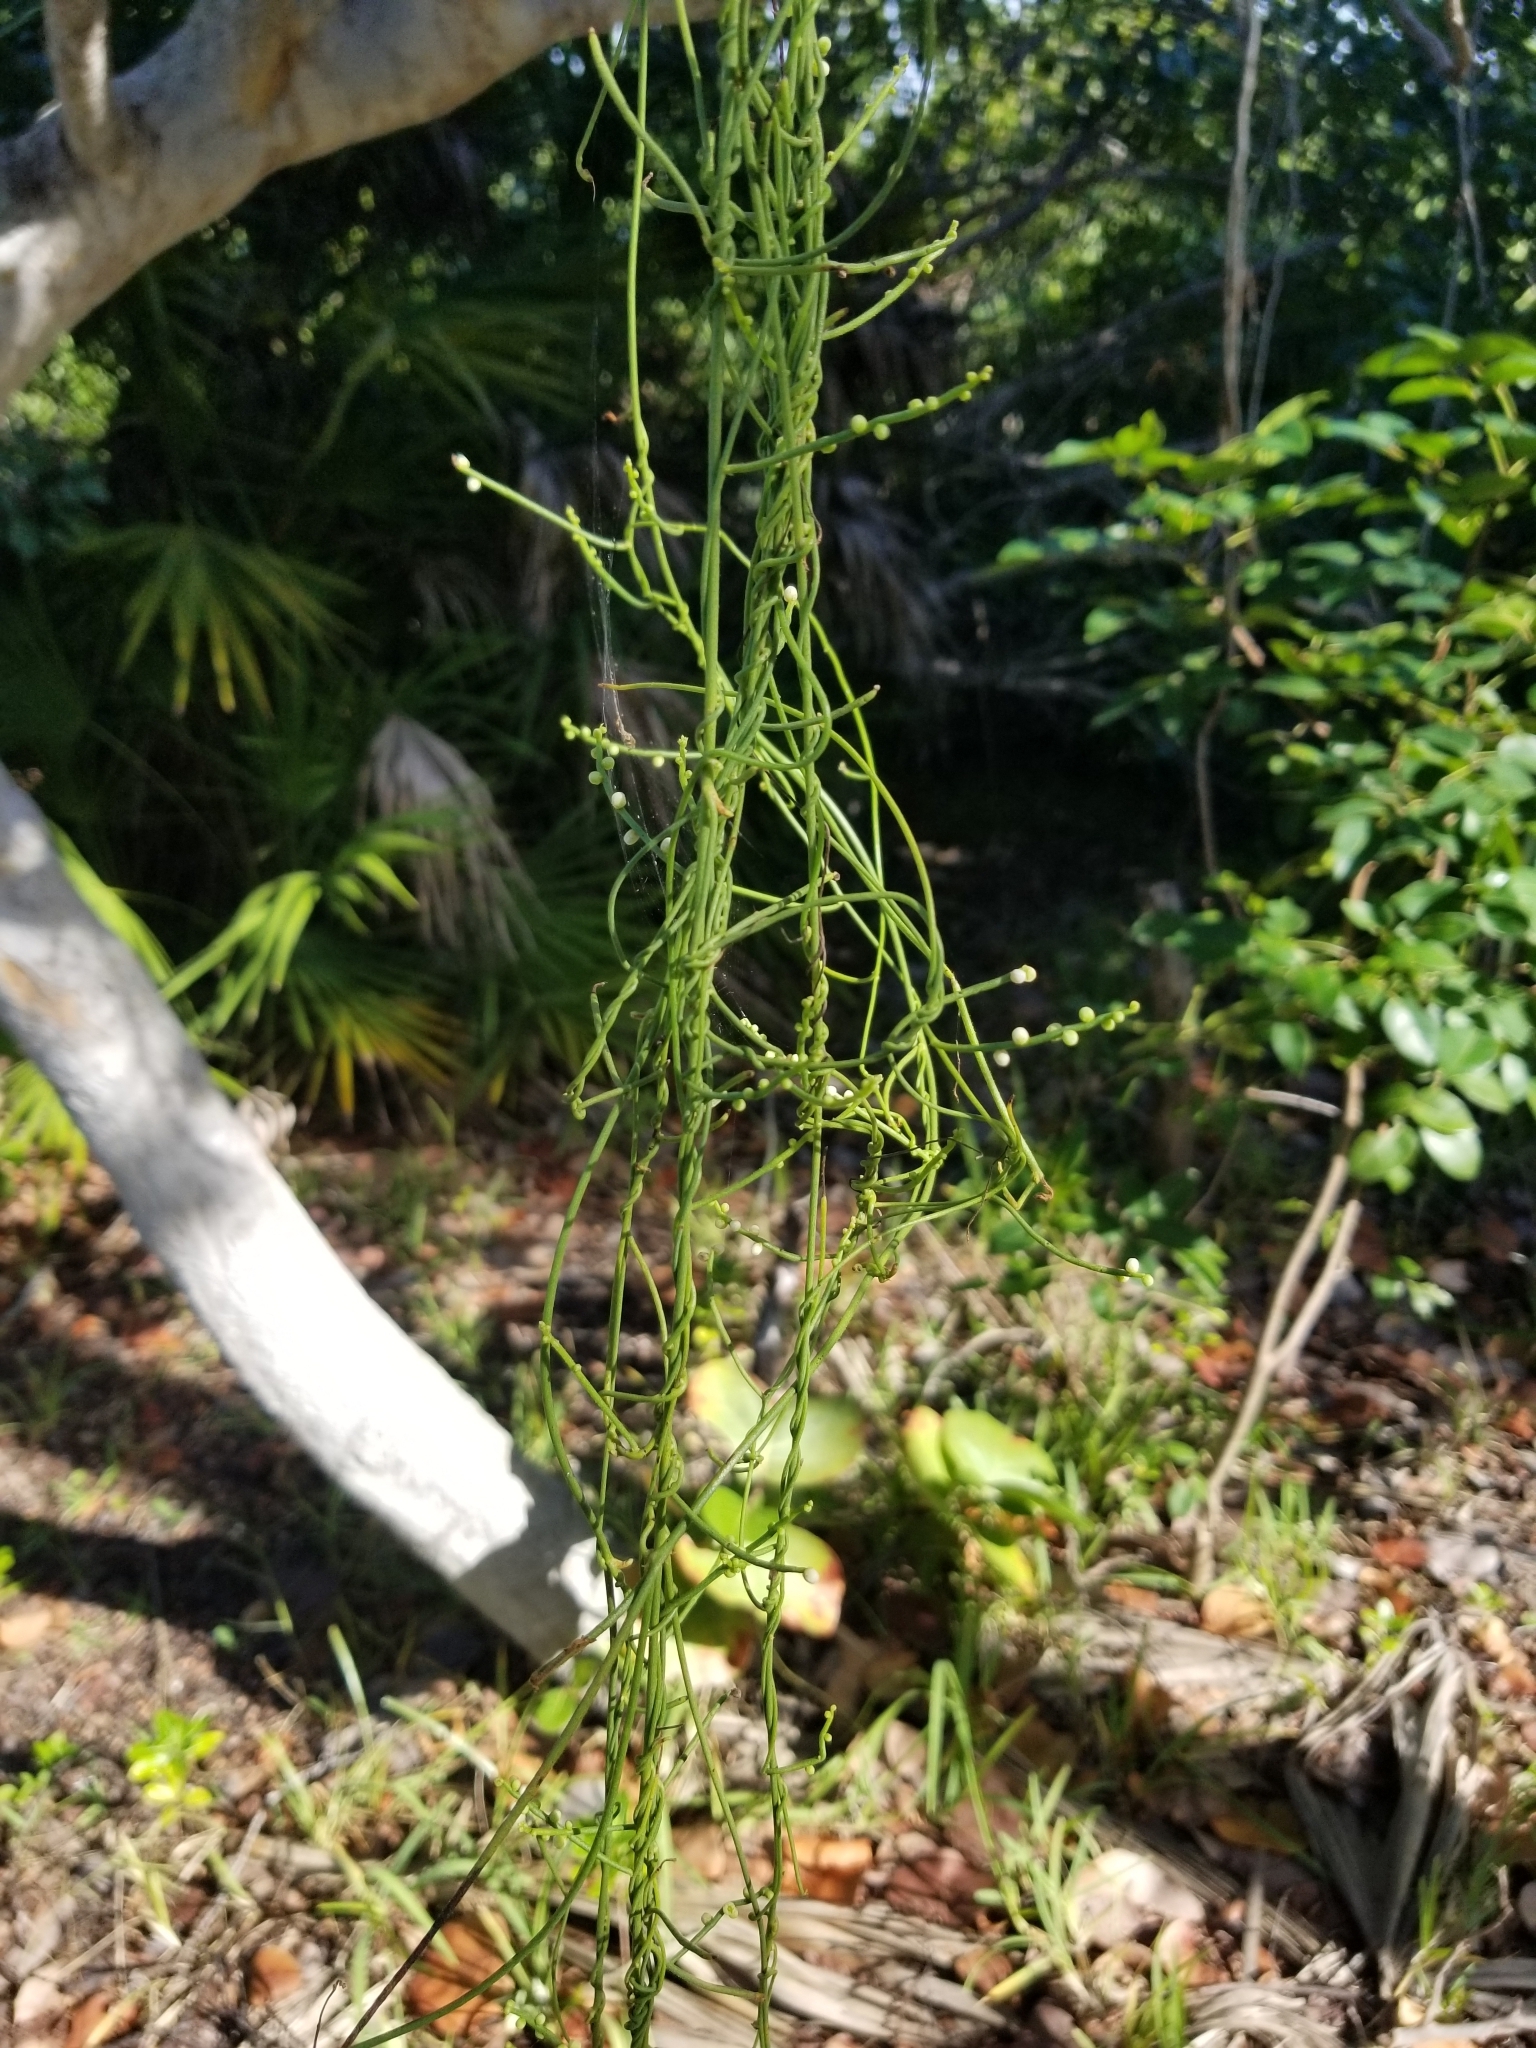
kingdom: Plantae
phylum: Tracheophyta
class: Magnoliopsida
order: Laurales
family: Lauraceae
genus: Cassytha
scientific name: Cassytha filiformis
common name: Dodder-laurel
